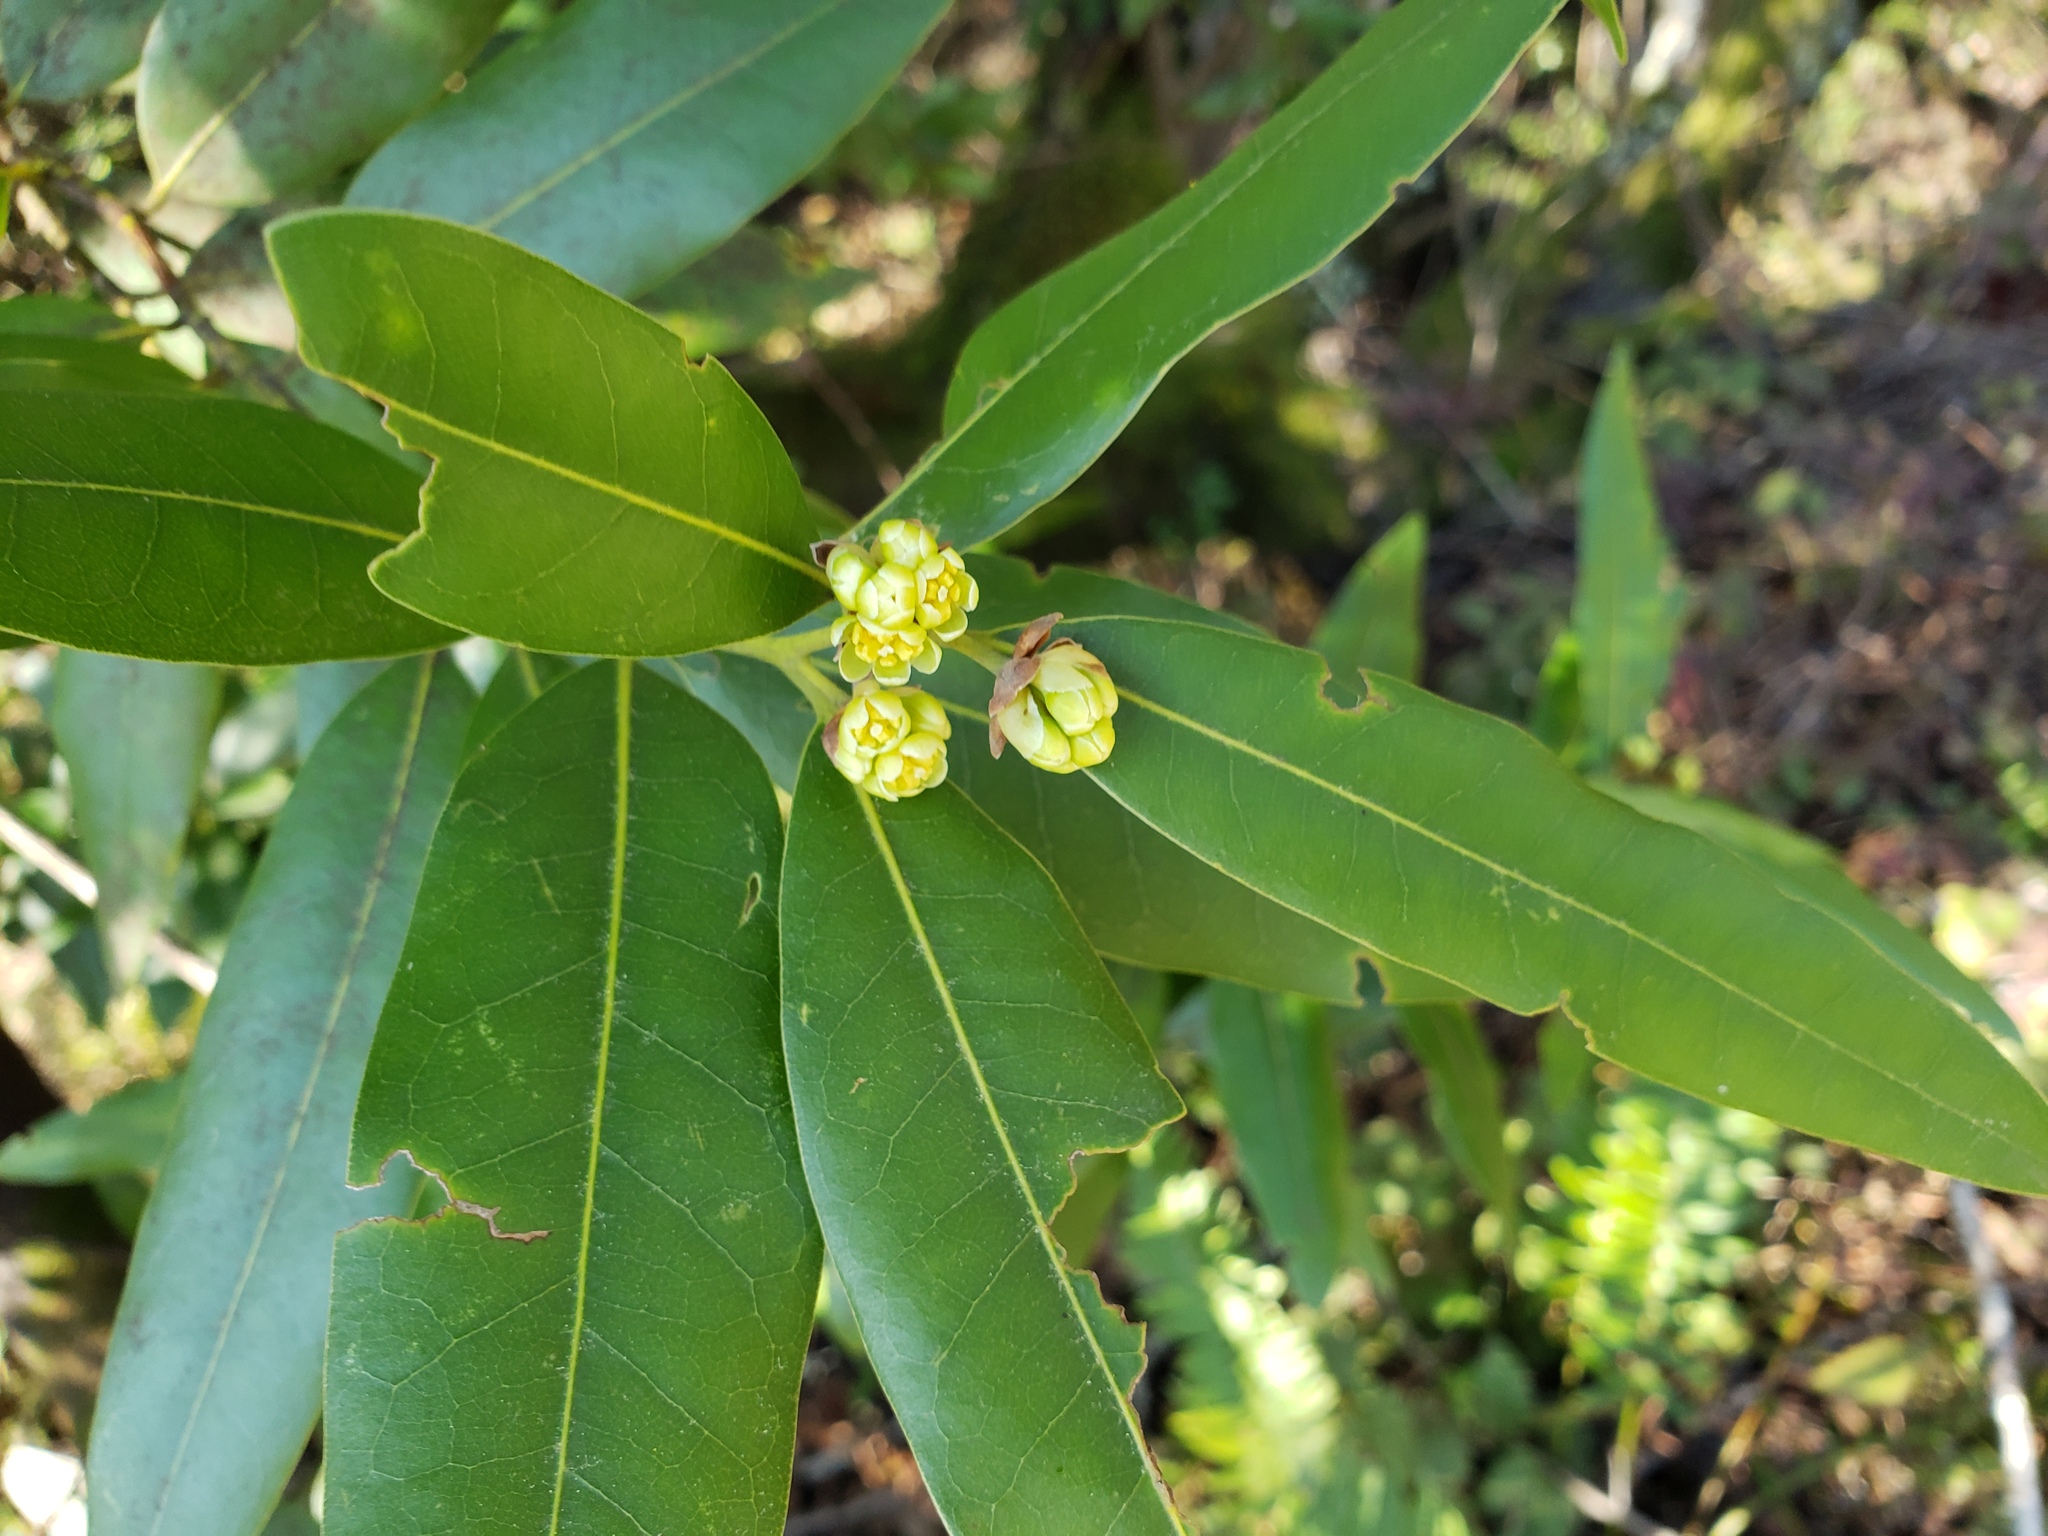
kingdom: Plantae
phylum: Tracheophyta
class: Magnoliopsida
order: Laurales
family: Lauraceae
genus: Umbellularia
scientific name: Umbellularia californica
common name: California bay
